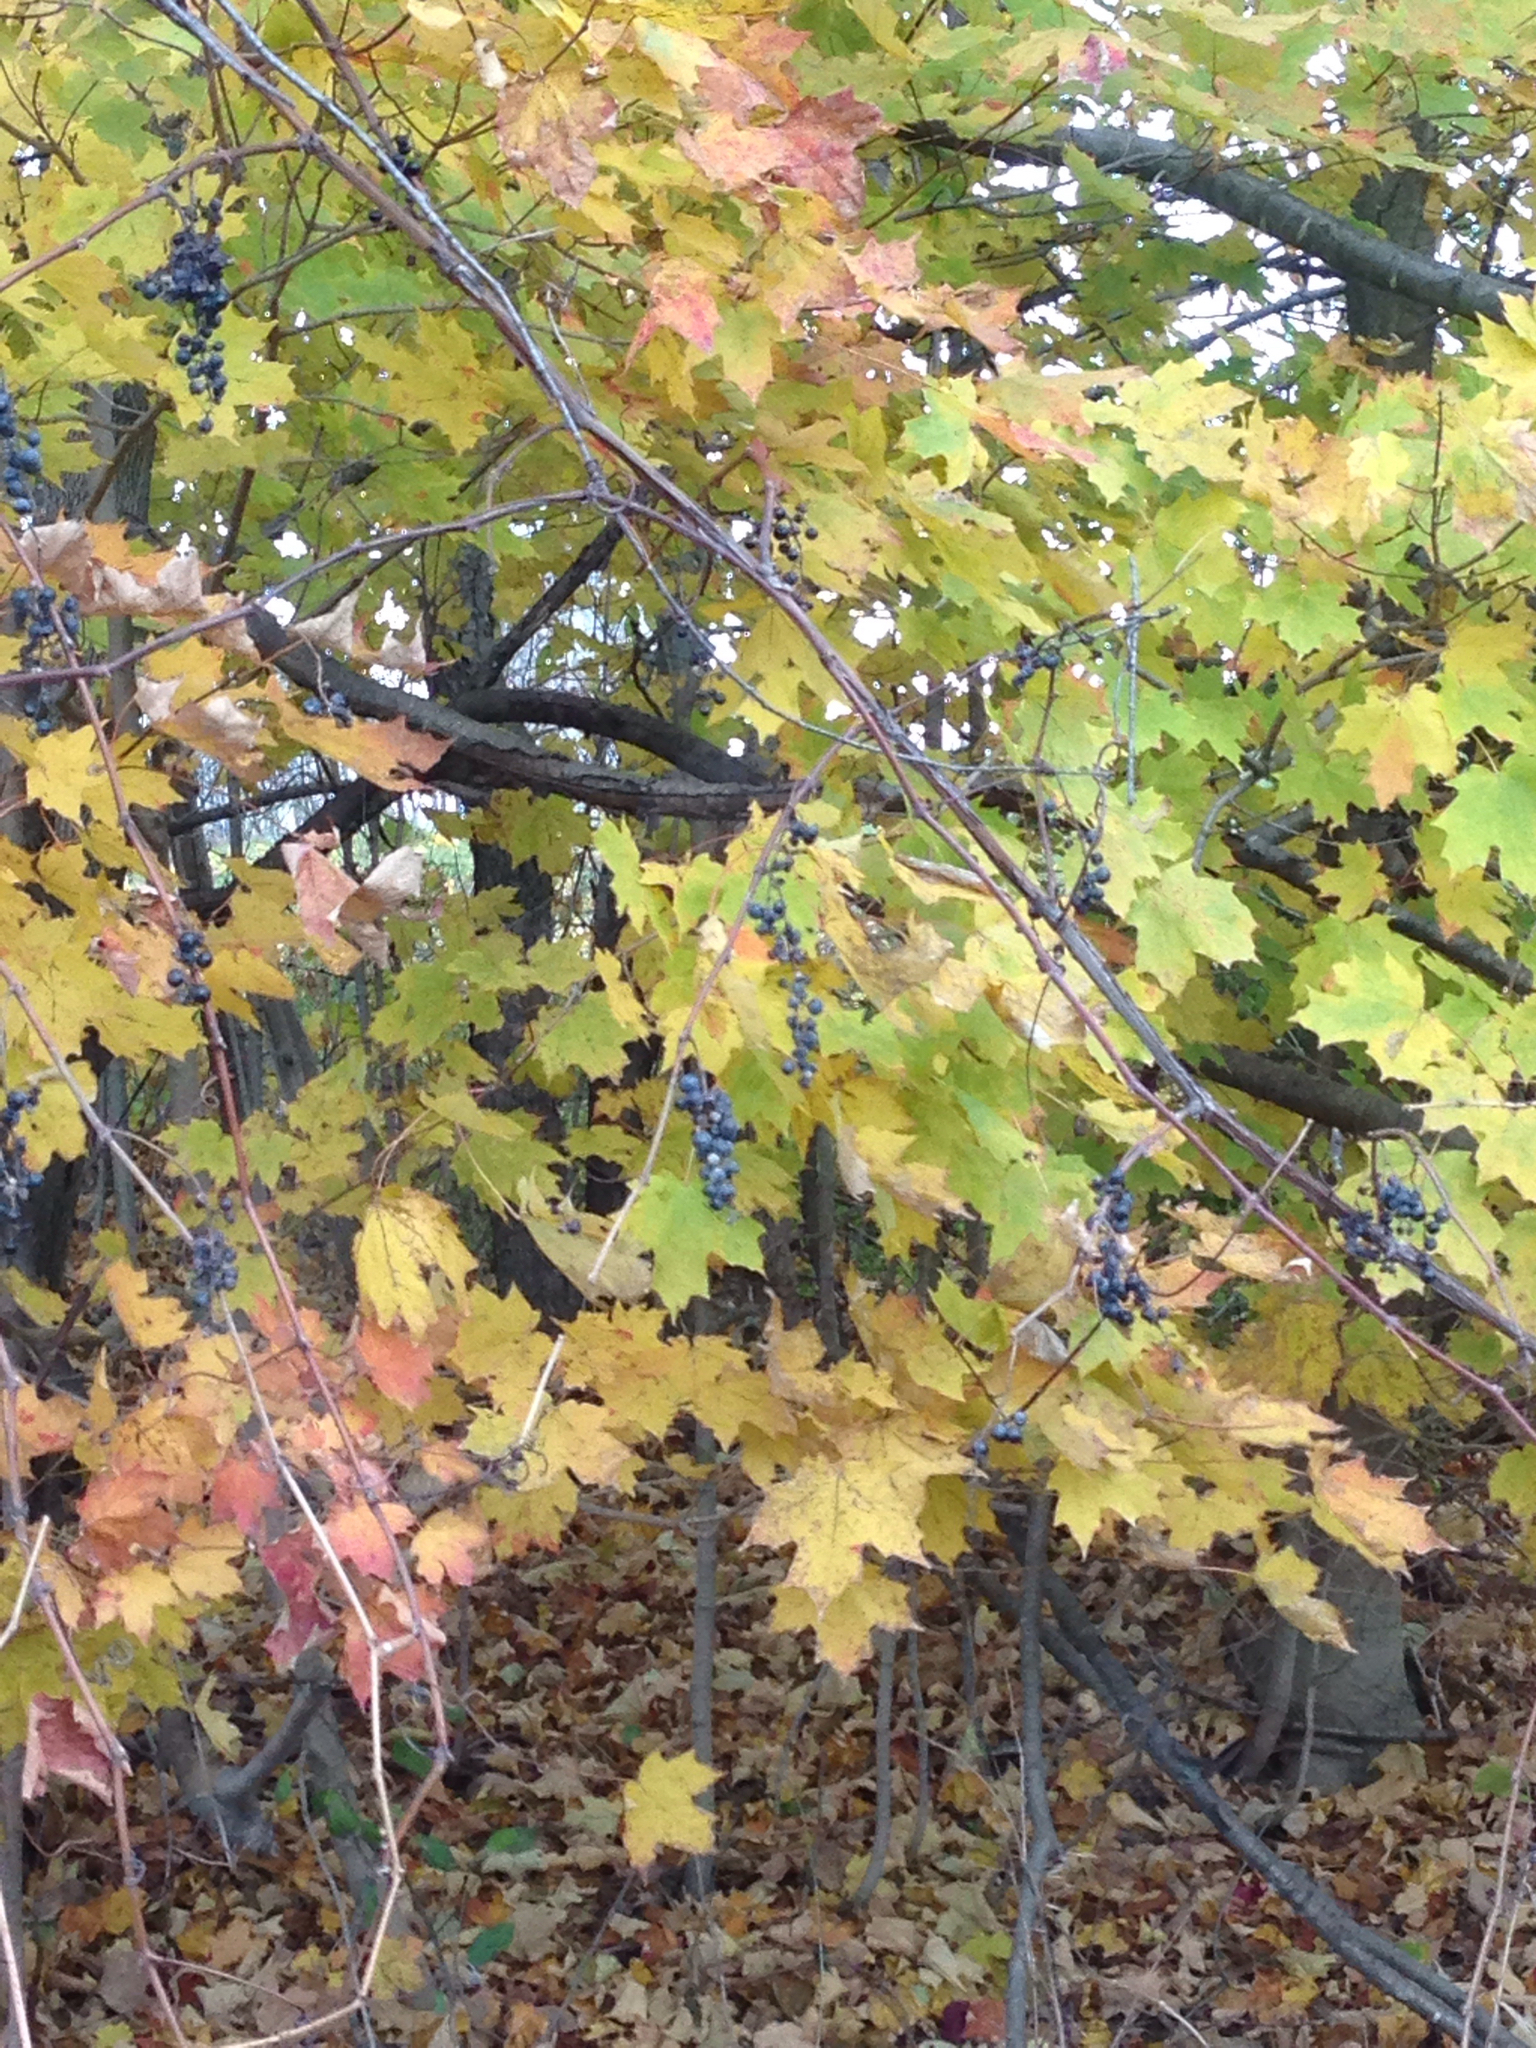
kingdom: Plantae
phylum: Tracheophyta
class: Magnoliopsida
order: Sapindales
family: Sapindaceae
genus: Acer
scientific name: Acer saccharum
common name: Sugar maple
